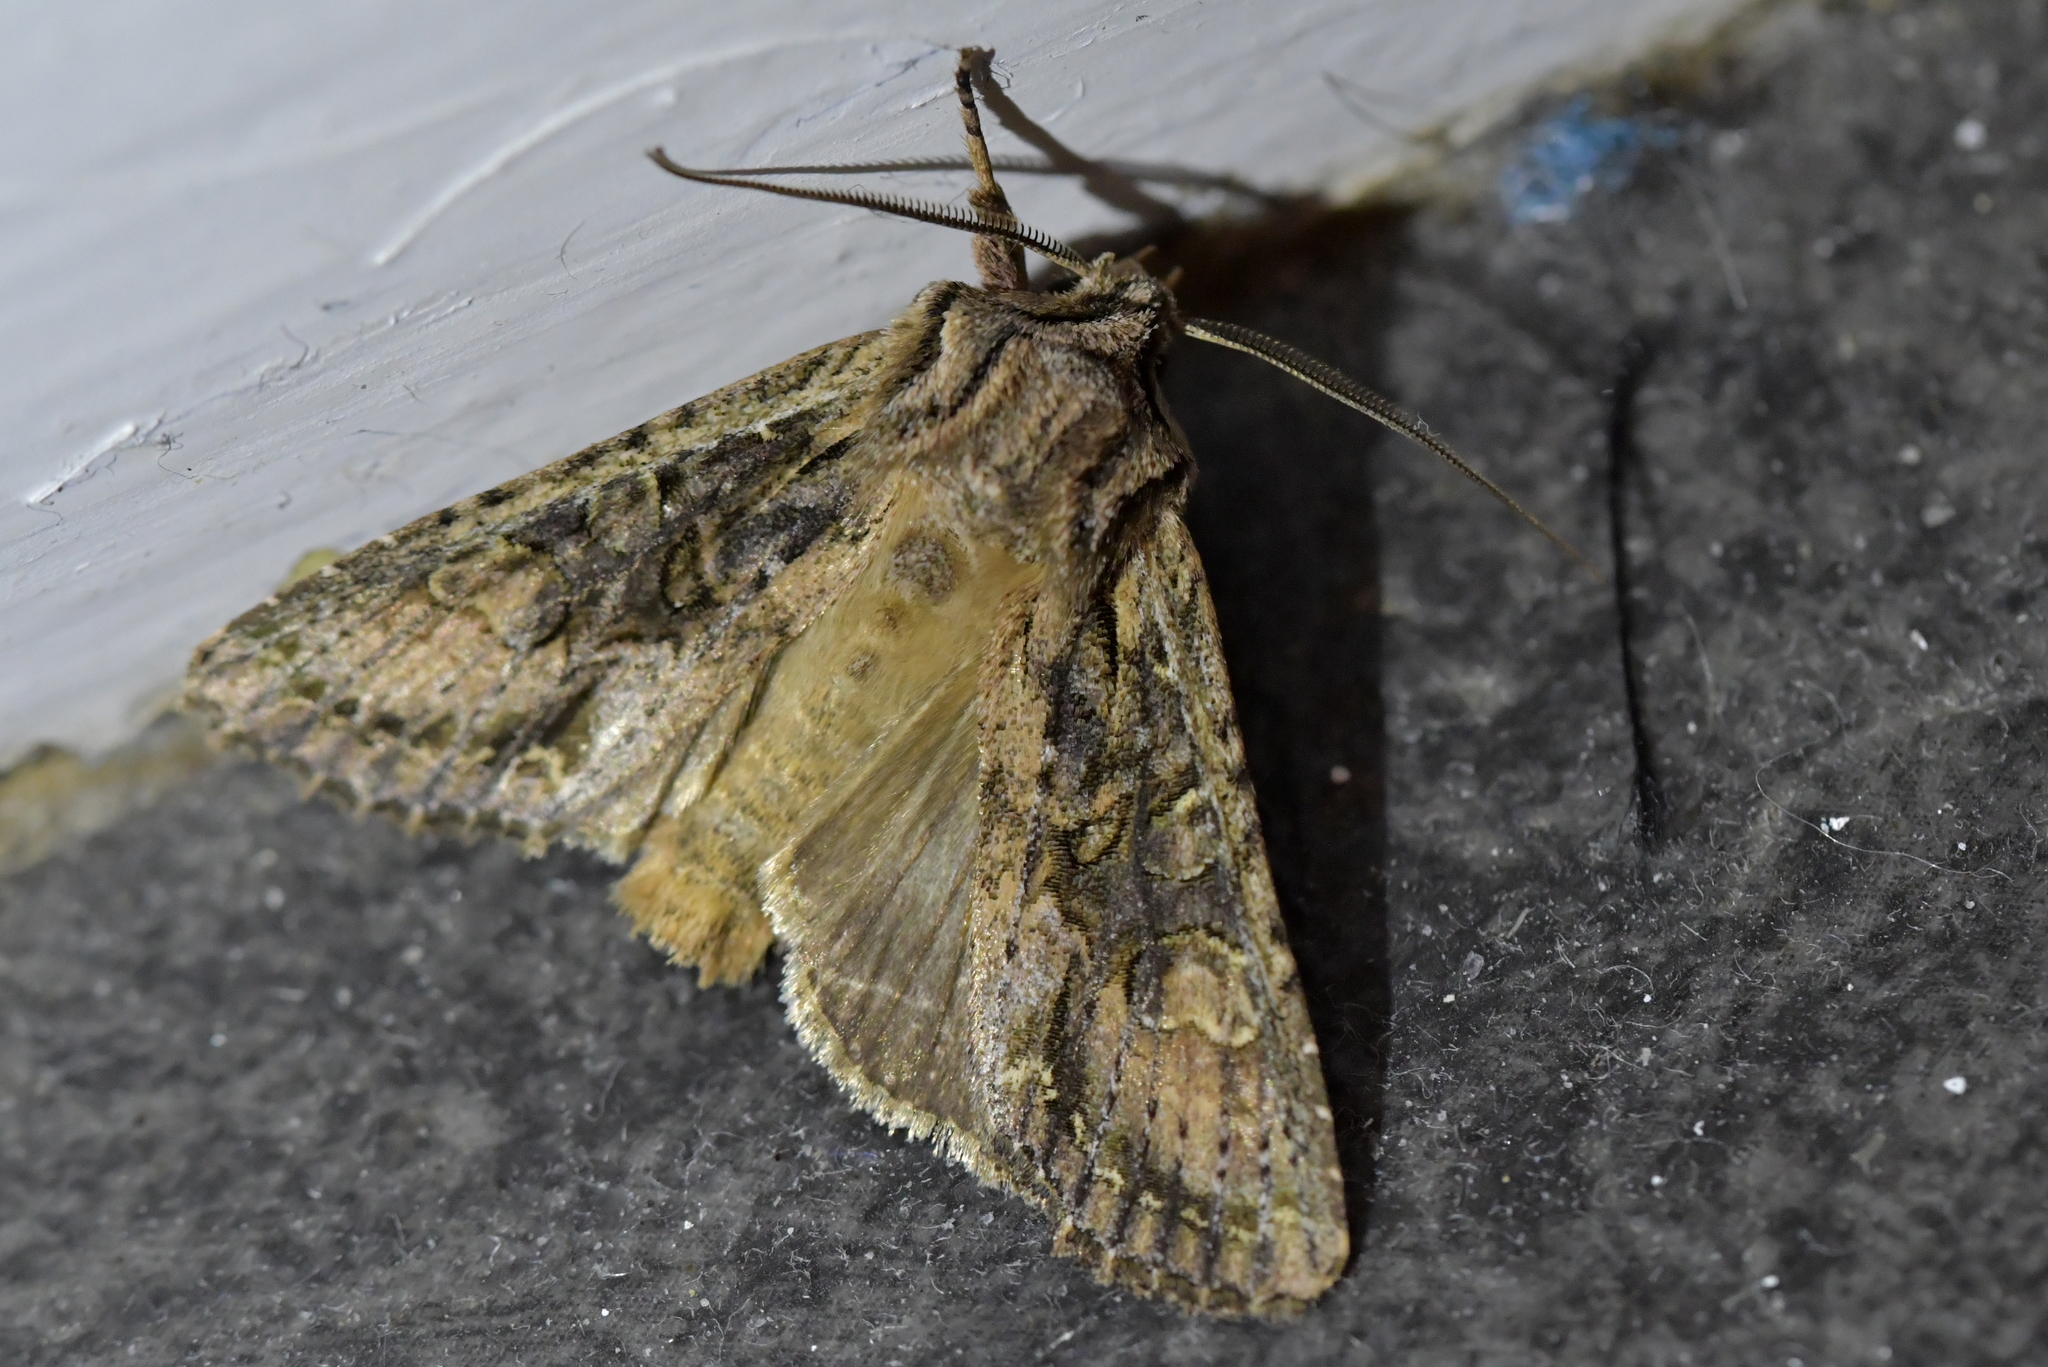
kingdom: Animalia
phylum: Arthropoda
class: Insecta
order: Lepidoptera
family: Noctuidae
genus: Ichneutica
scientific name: Ichneutica mutans
